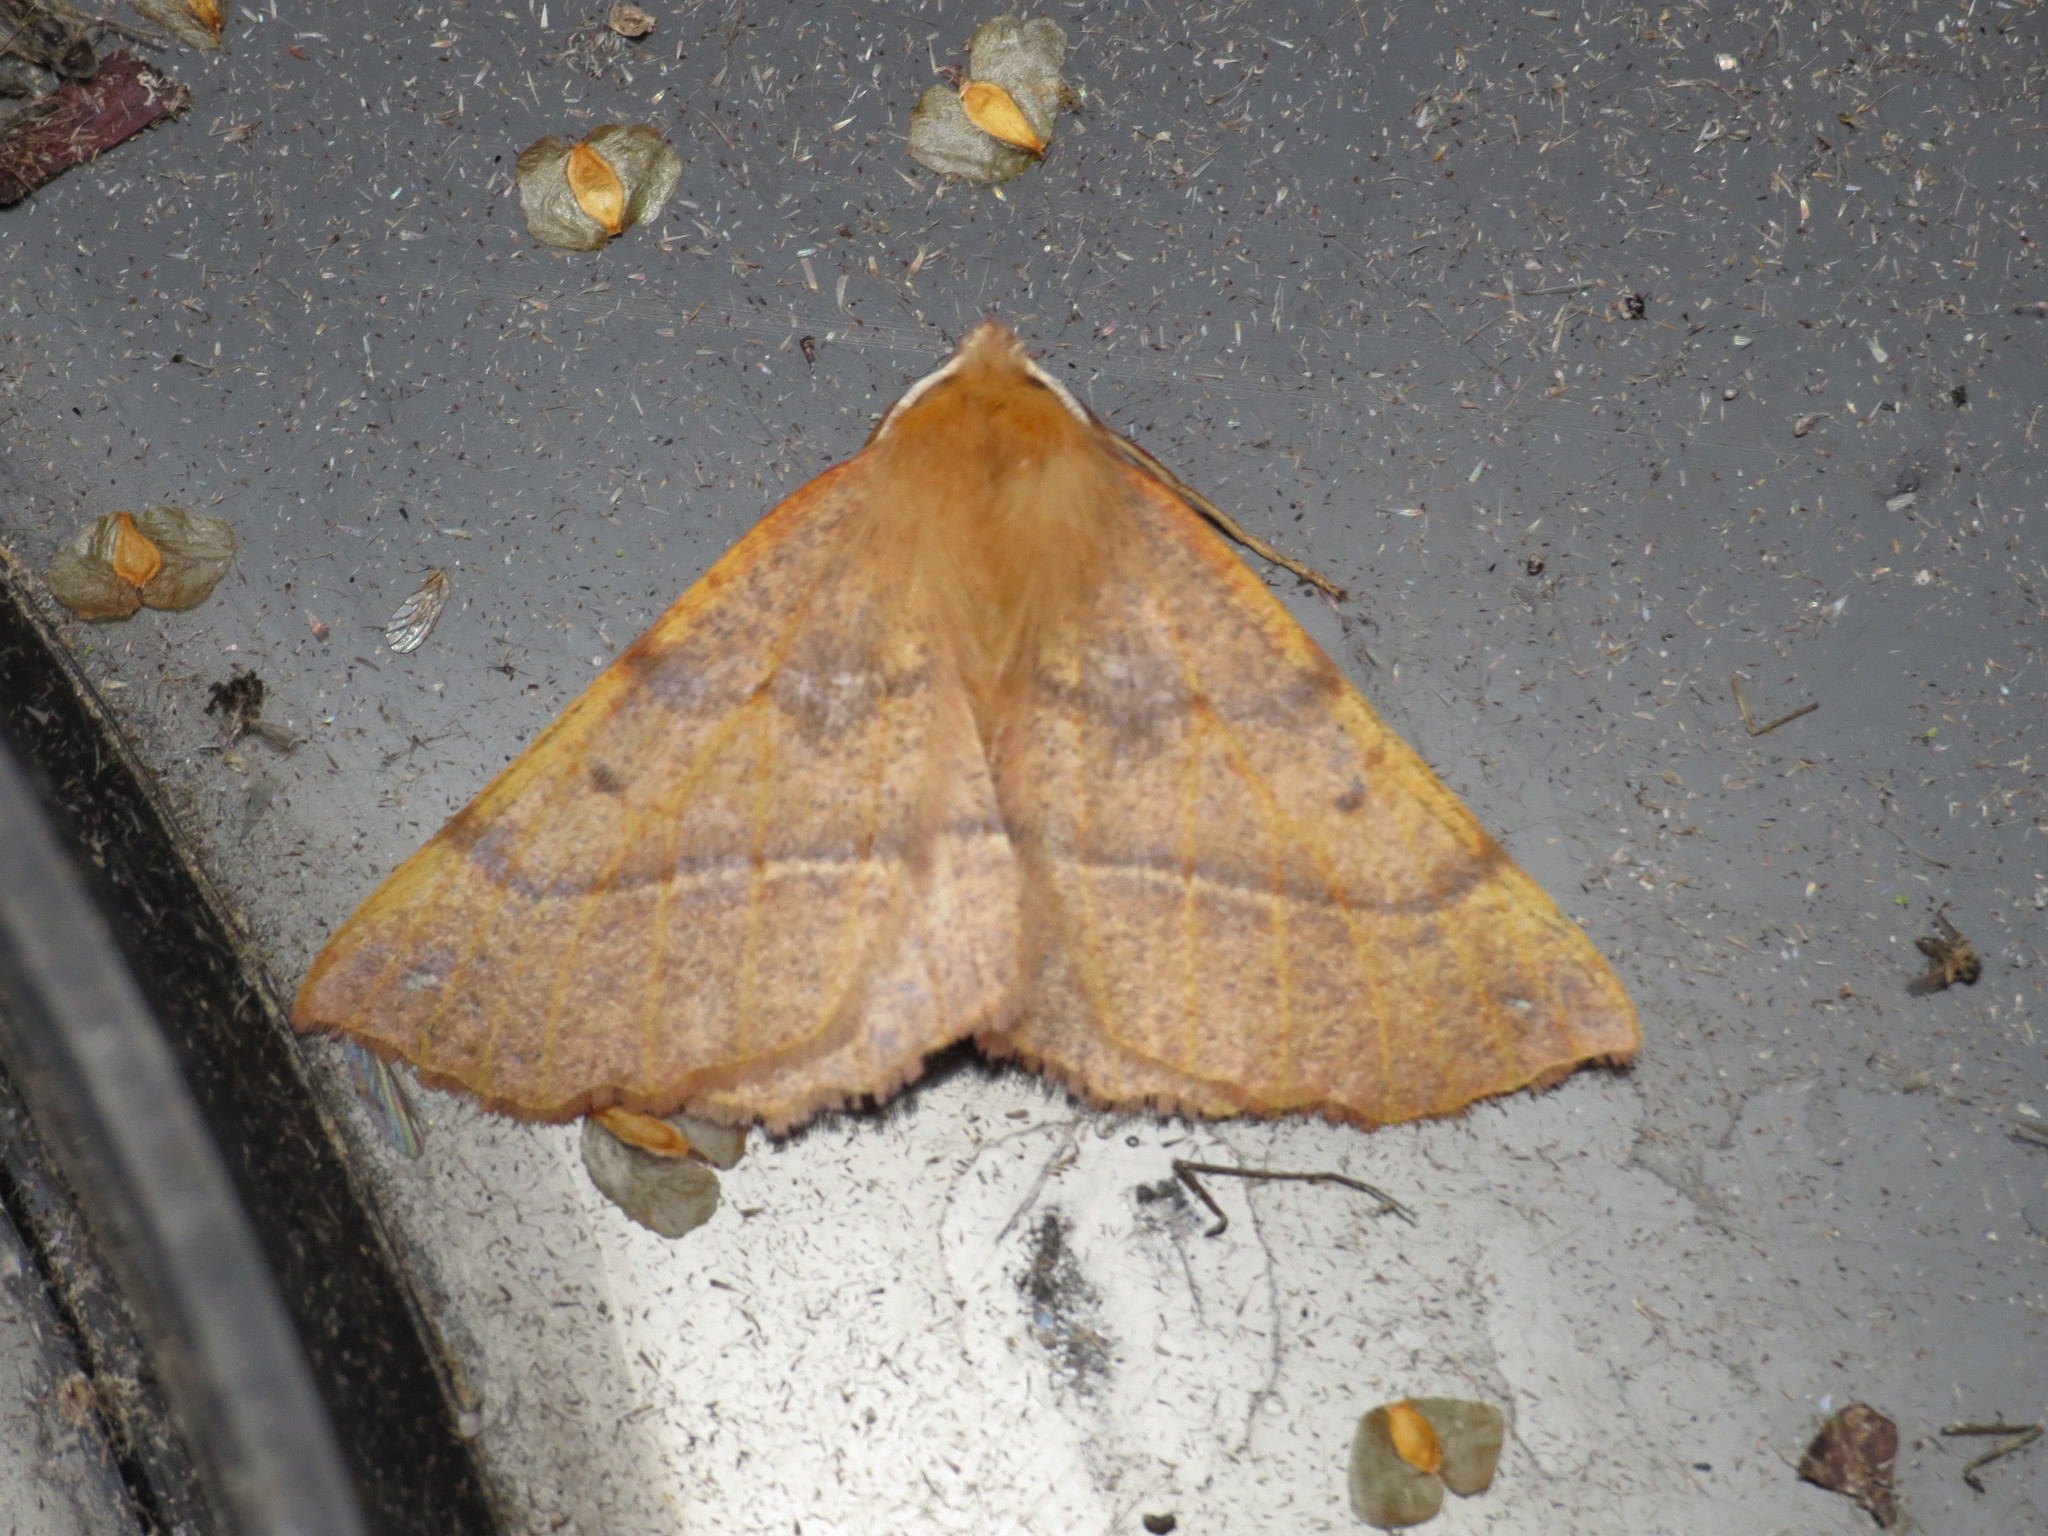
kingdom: Animalia
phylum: Arthropoda
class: Insecta
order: Lepidoptera
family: Geometridae
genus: Colotois
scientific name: Colotois pennaria
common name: Feathered thorn
